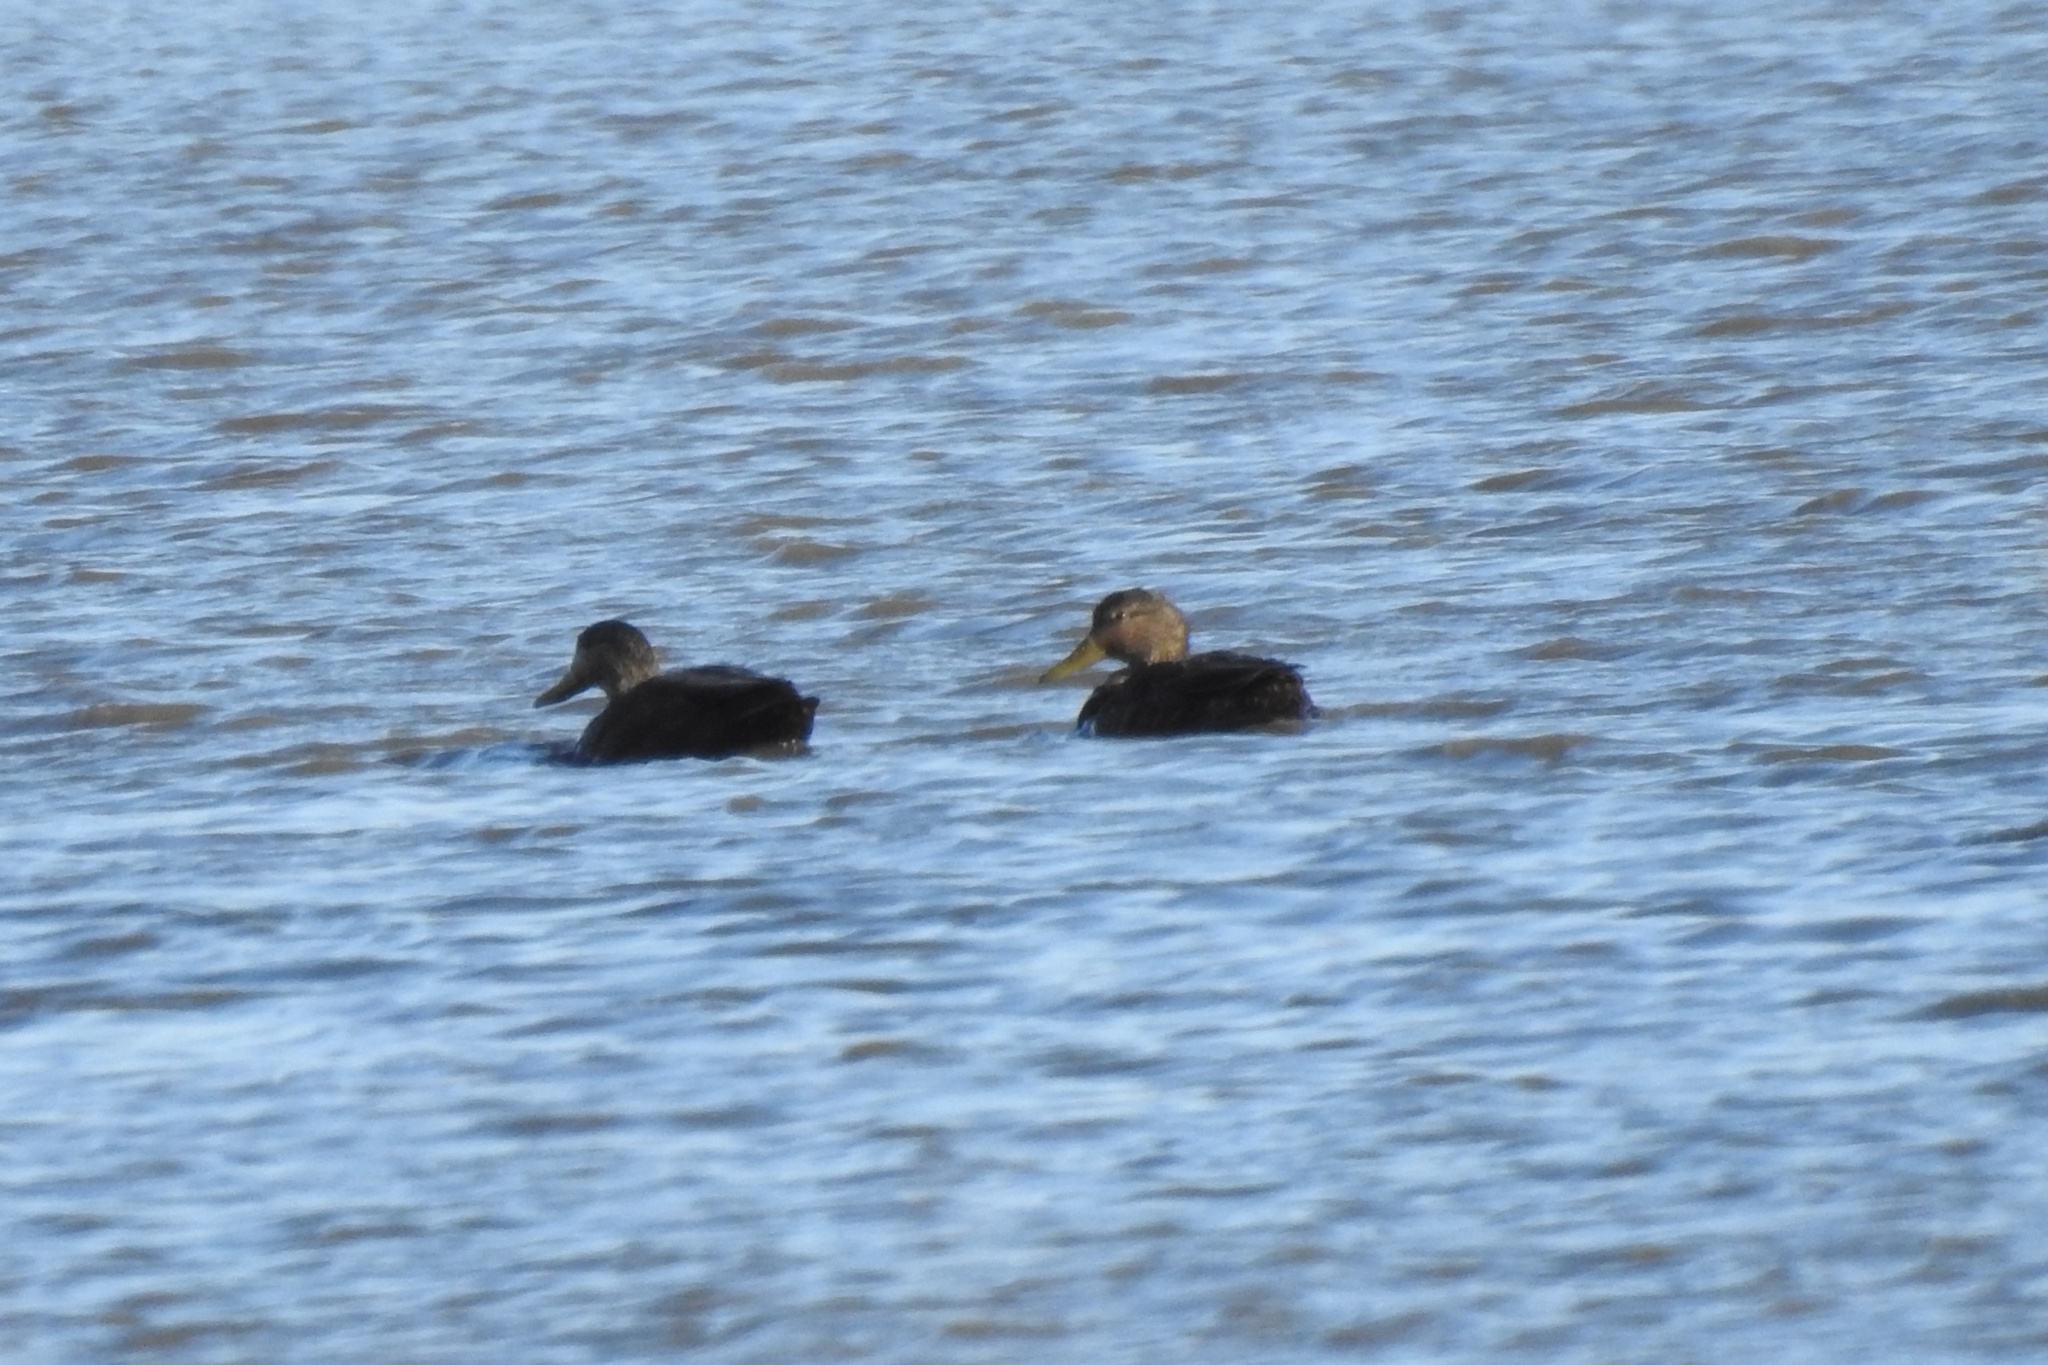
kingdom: Animalia
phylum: Chordata
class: Aves
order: Anseriformes
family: Anatidae
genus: Anas
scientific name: Anas rubripes
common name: American black duck
